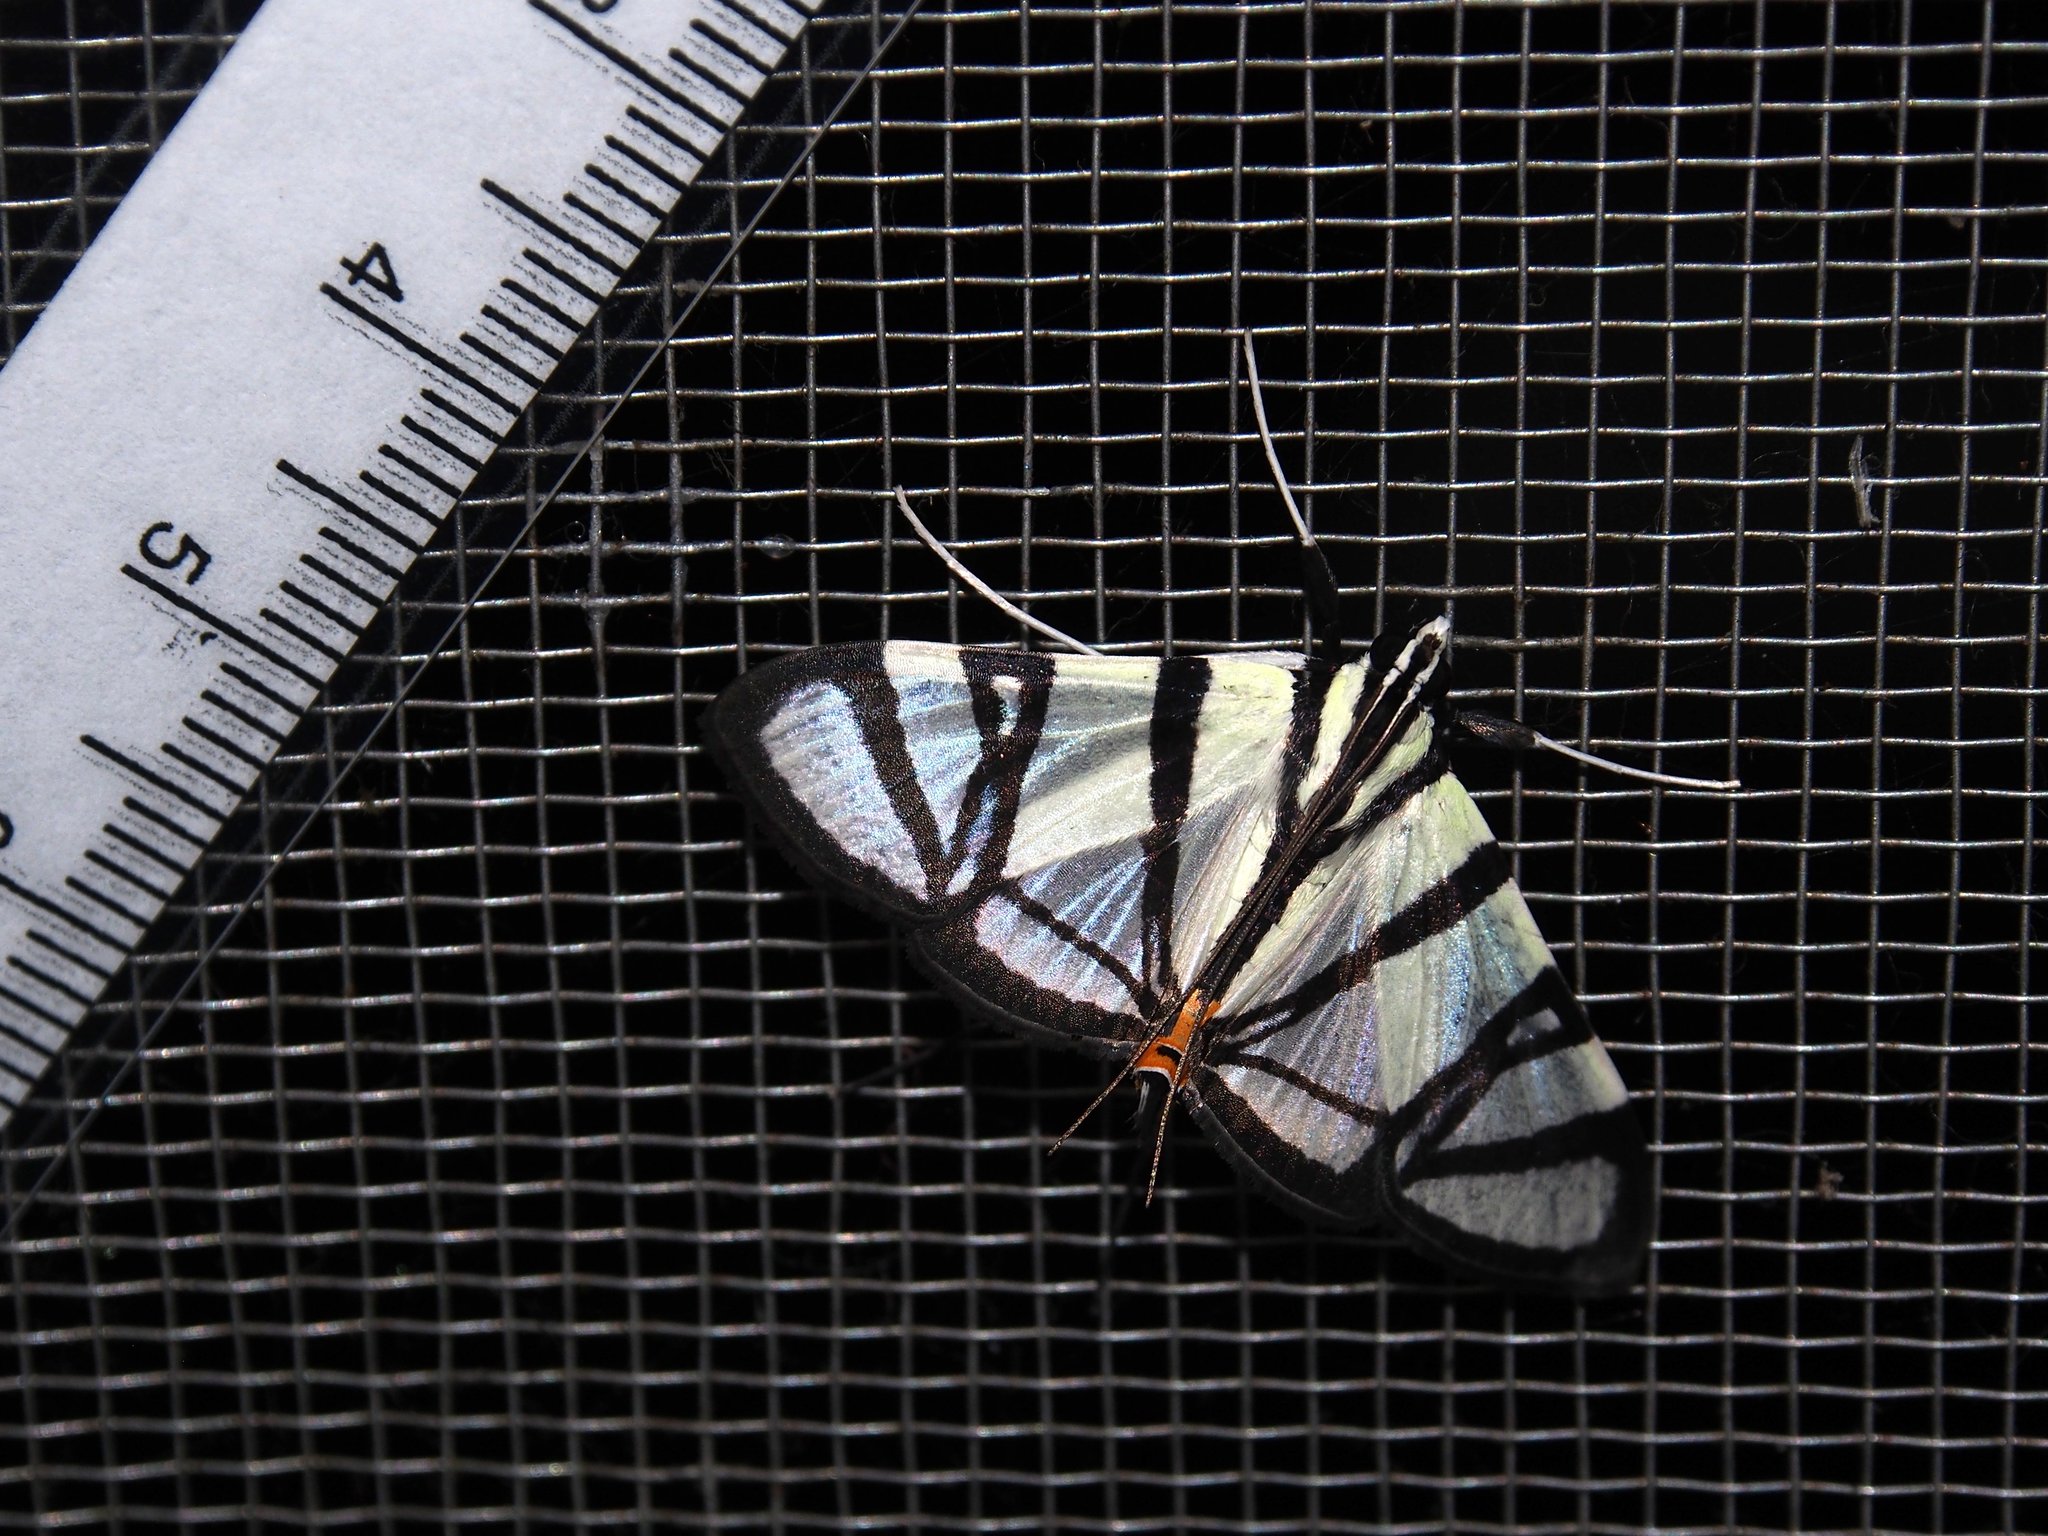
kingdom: Animalia
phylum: Arthropoda
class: Insecta
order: Lepidoptera
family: Crambidae
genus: Conchylodes
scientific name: Conchylodes nolckenialis
